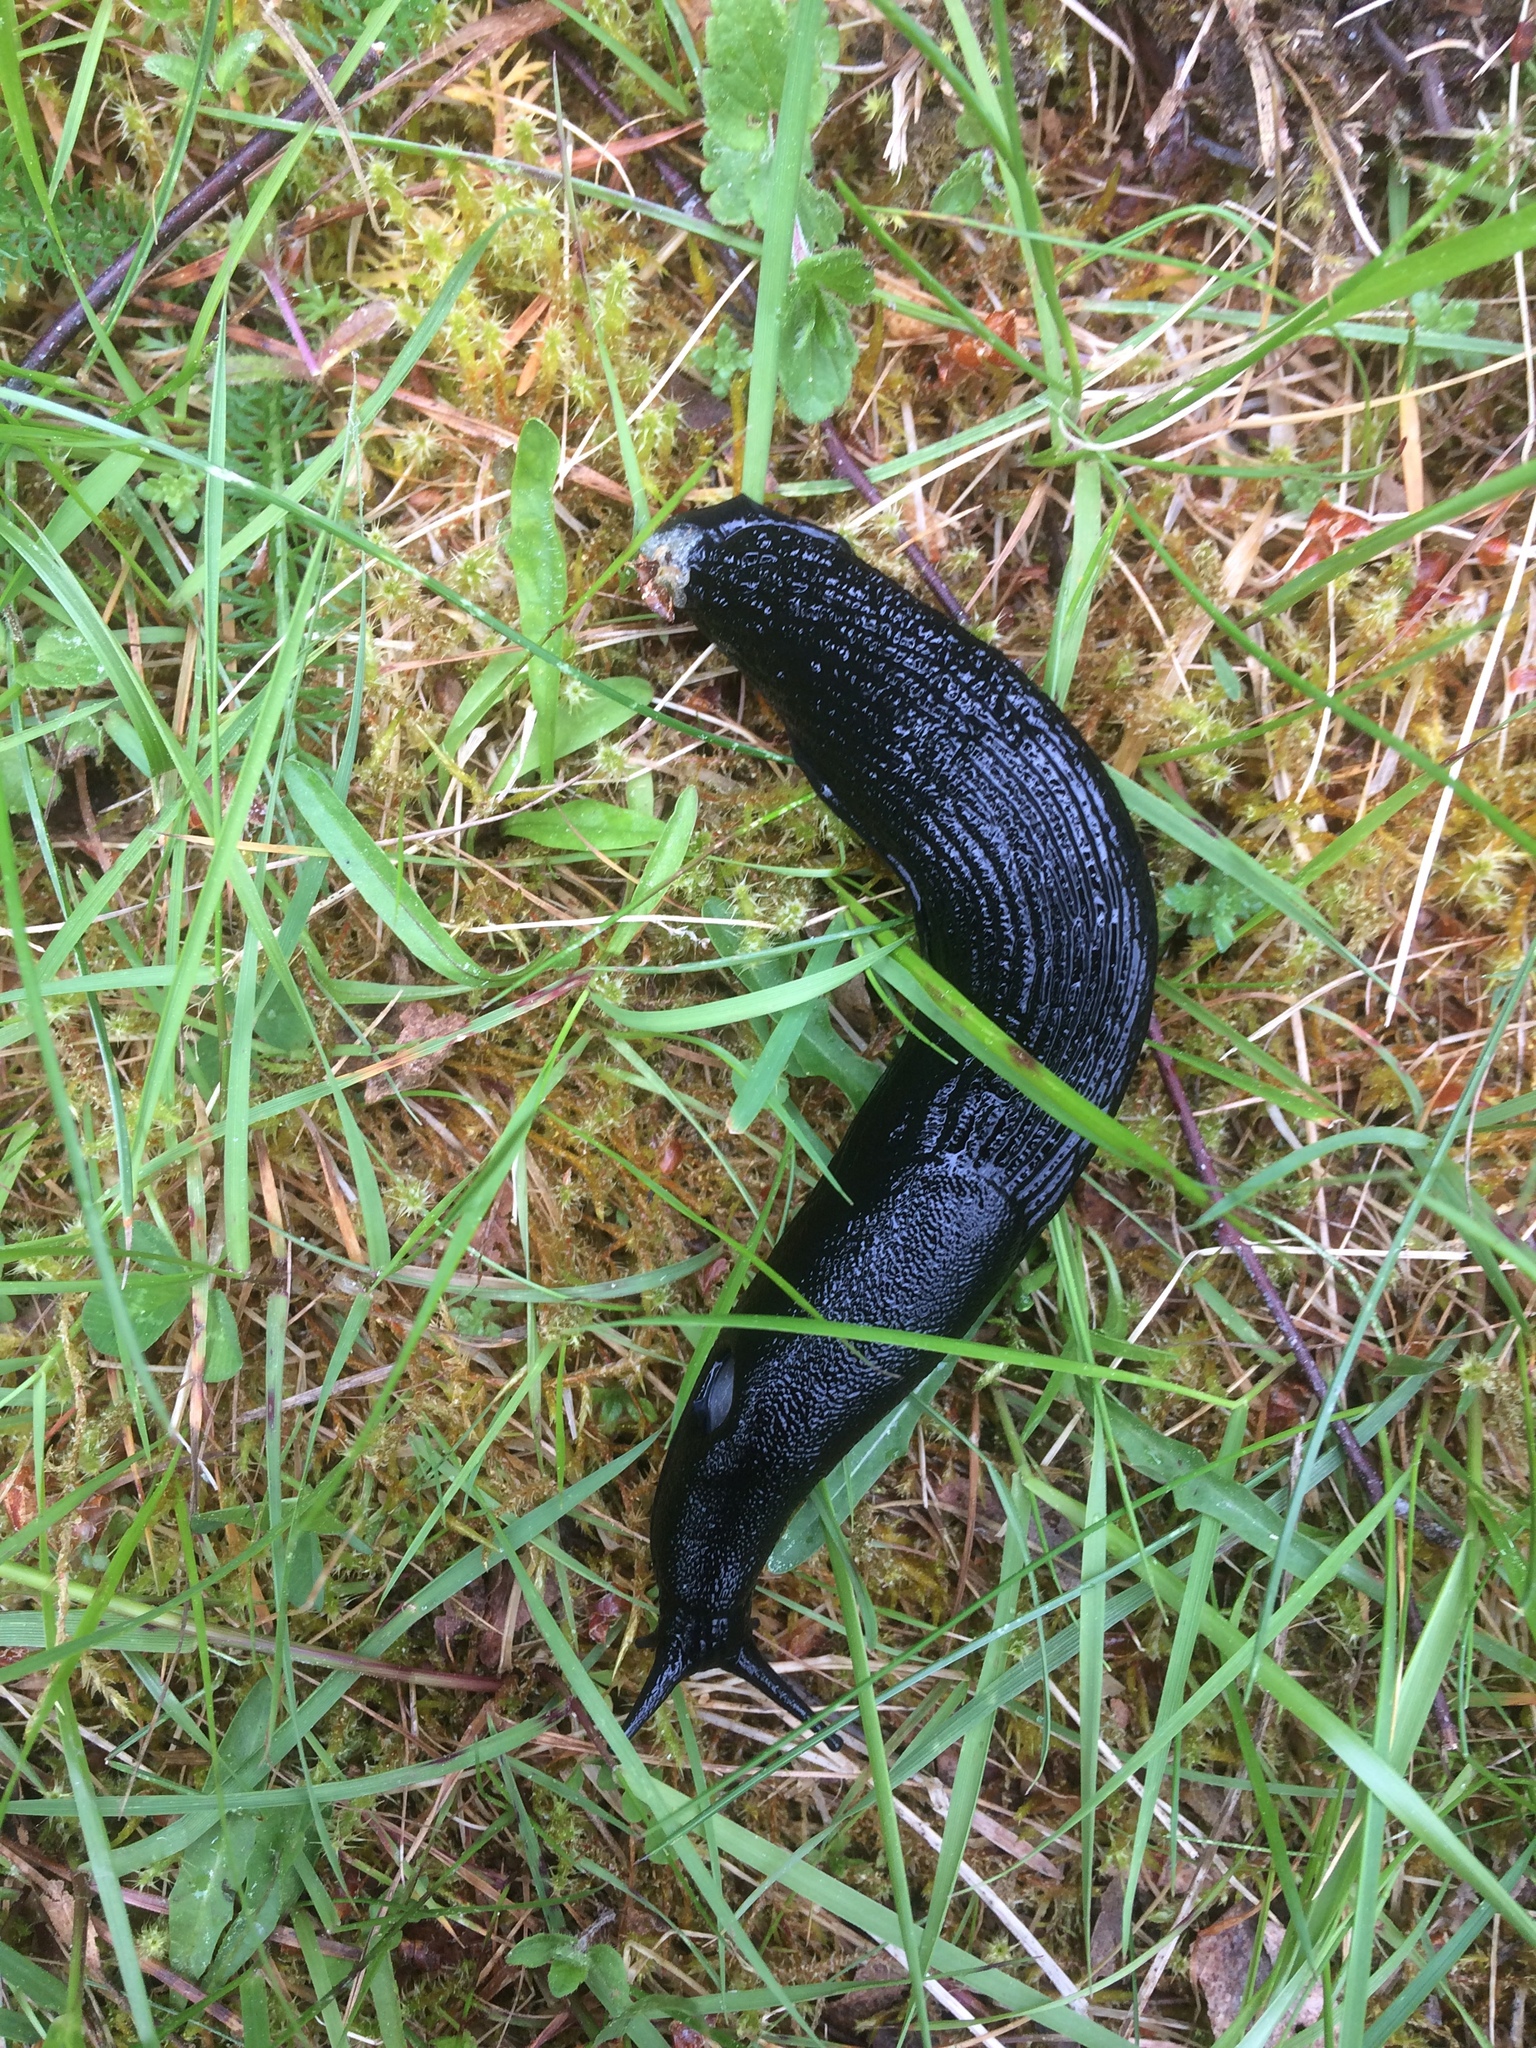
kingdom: Animalia
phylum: Mollusca
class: Gastropoda
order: Stylommatophora
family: Arionidae
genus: Arion
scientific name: Arion
